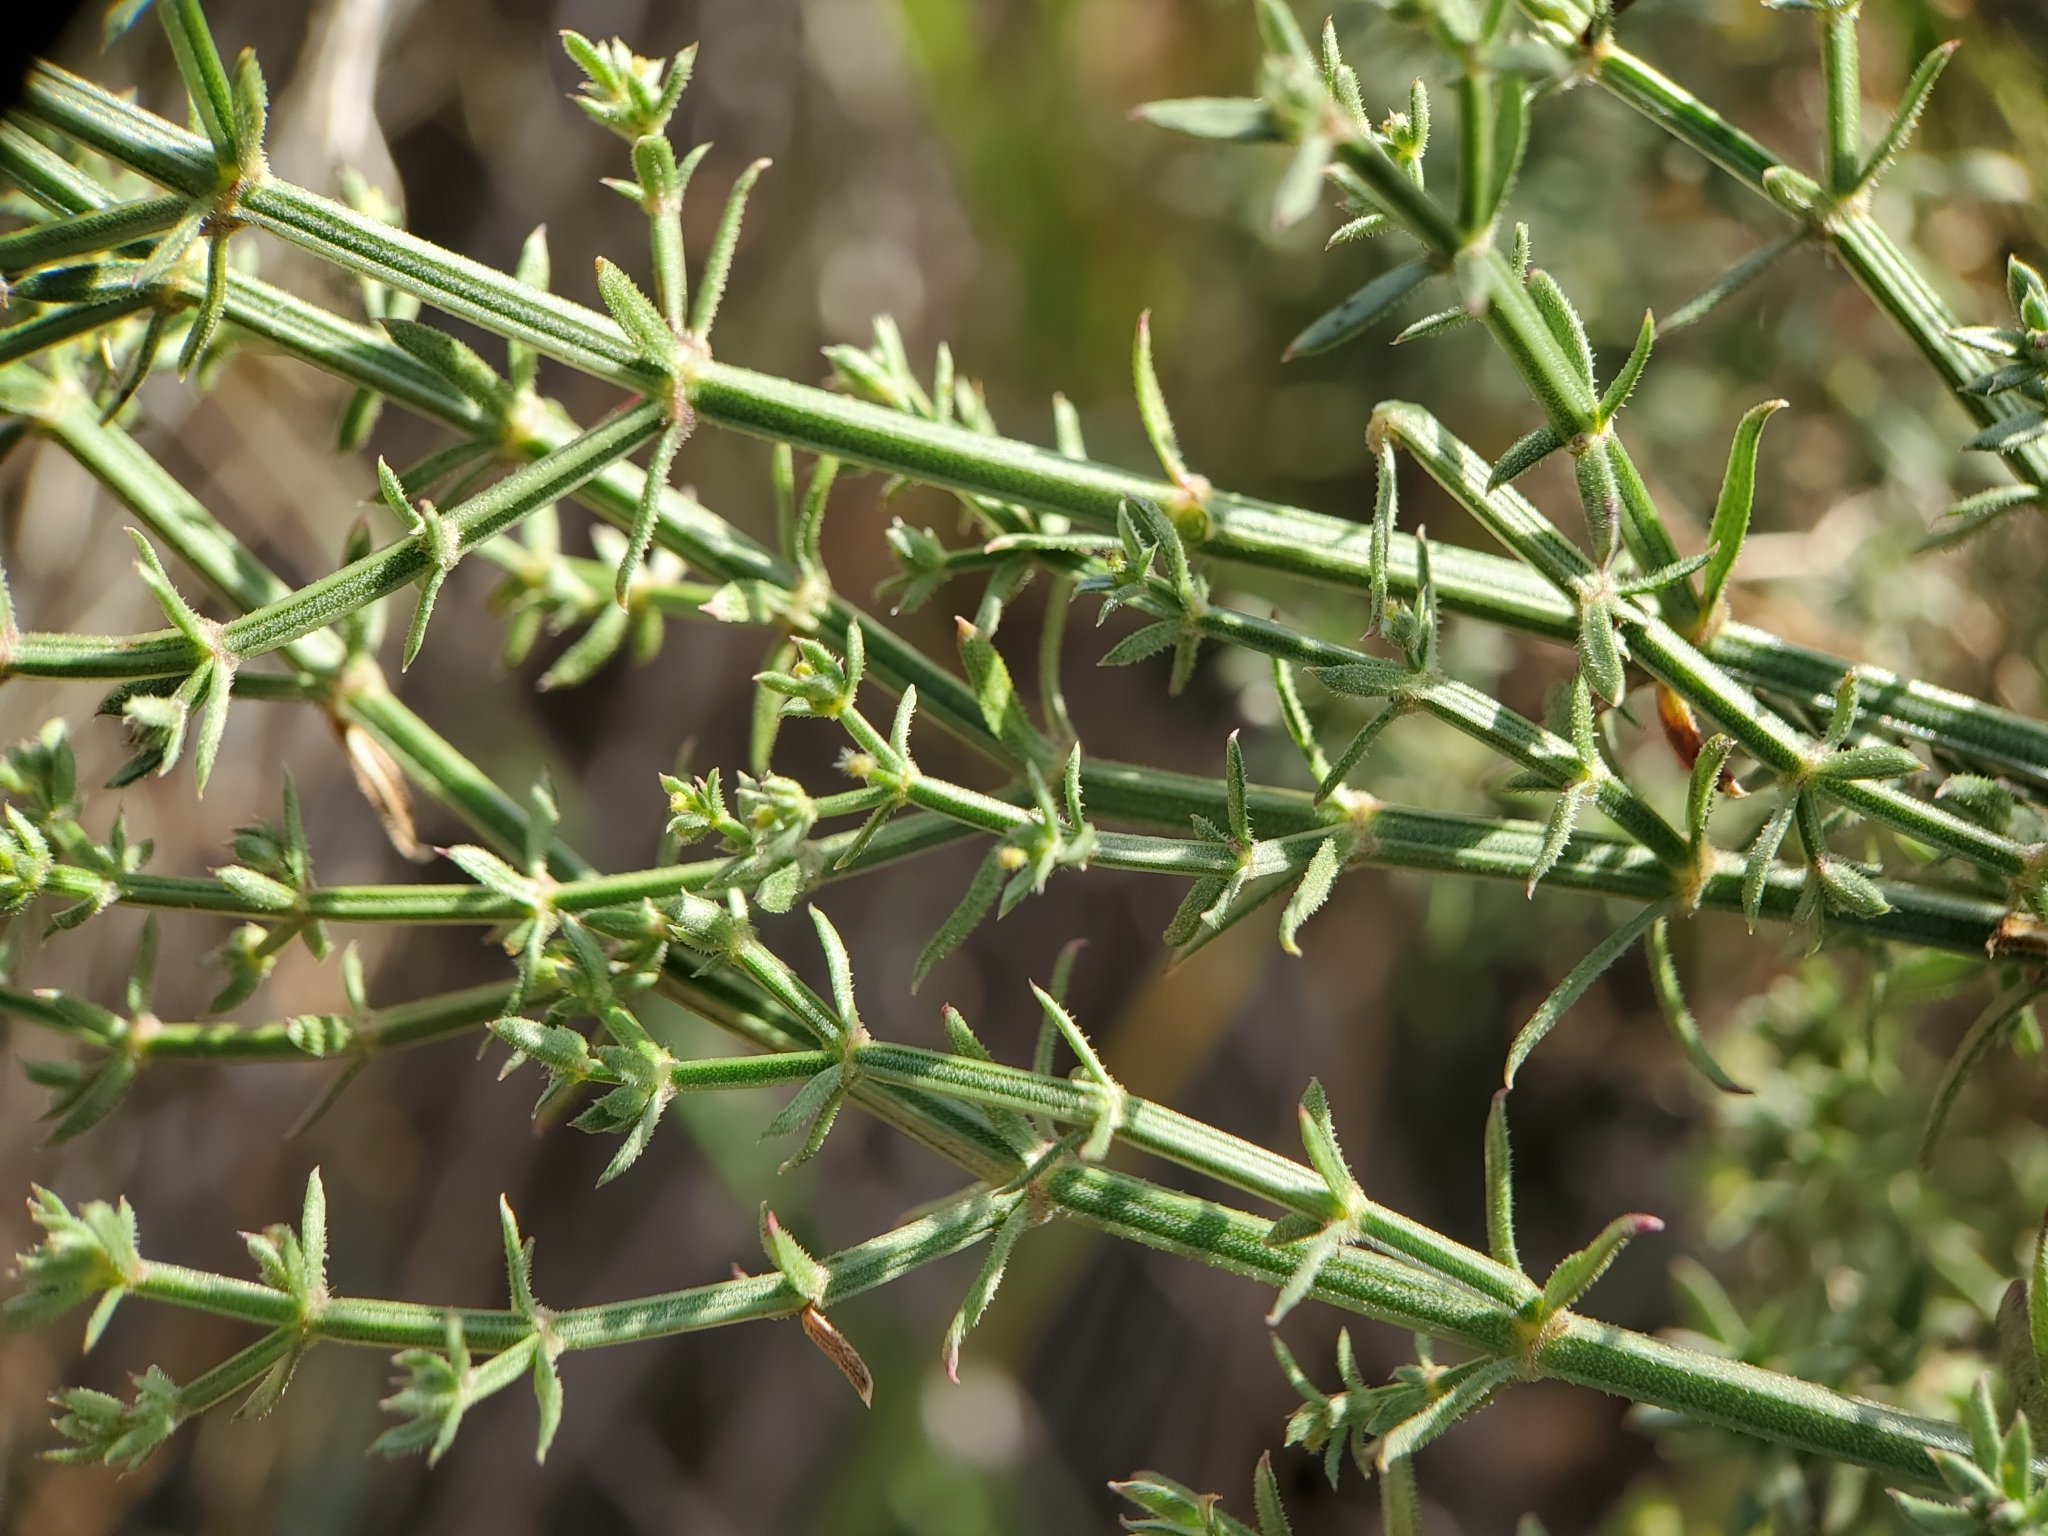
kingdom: Plantae
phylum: Tracheophyta
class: Magnoliopsida
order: Gentianales
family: Rubiaceae
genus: Galium
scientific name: Galium angustifolium
